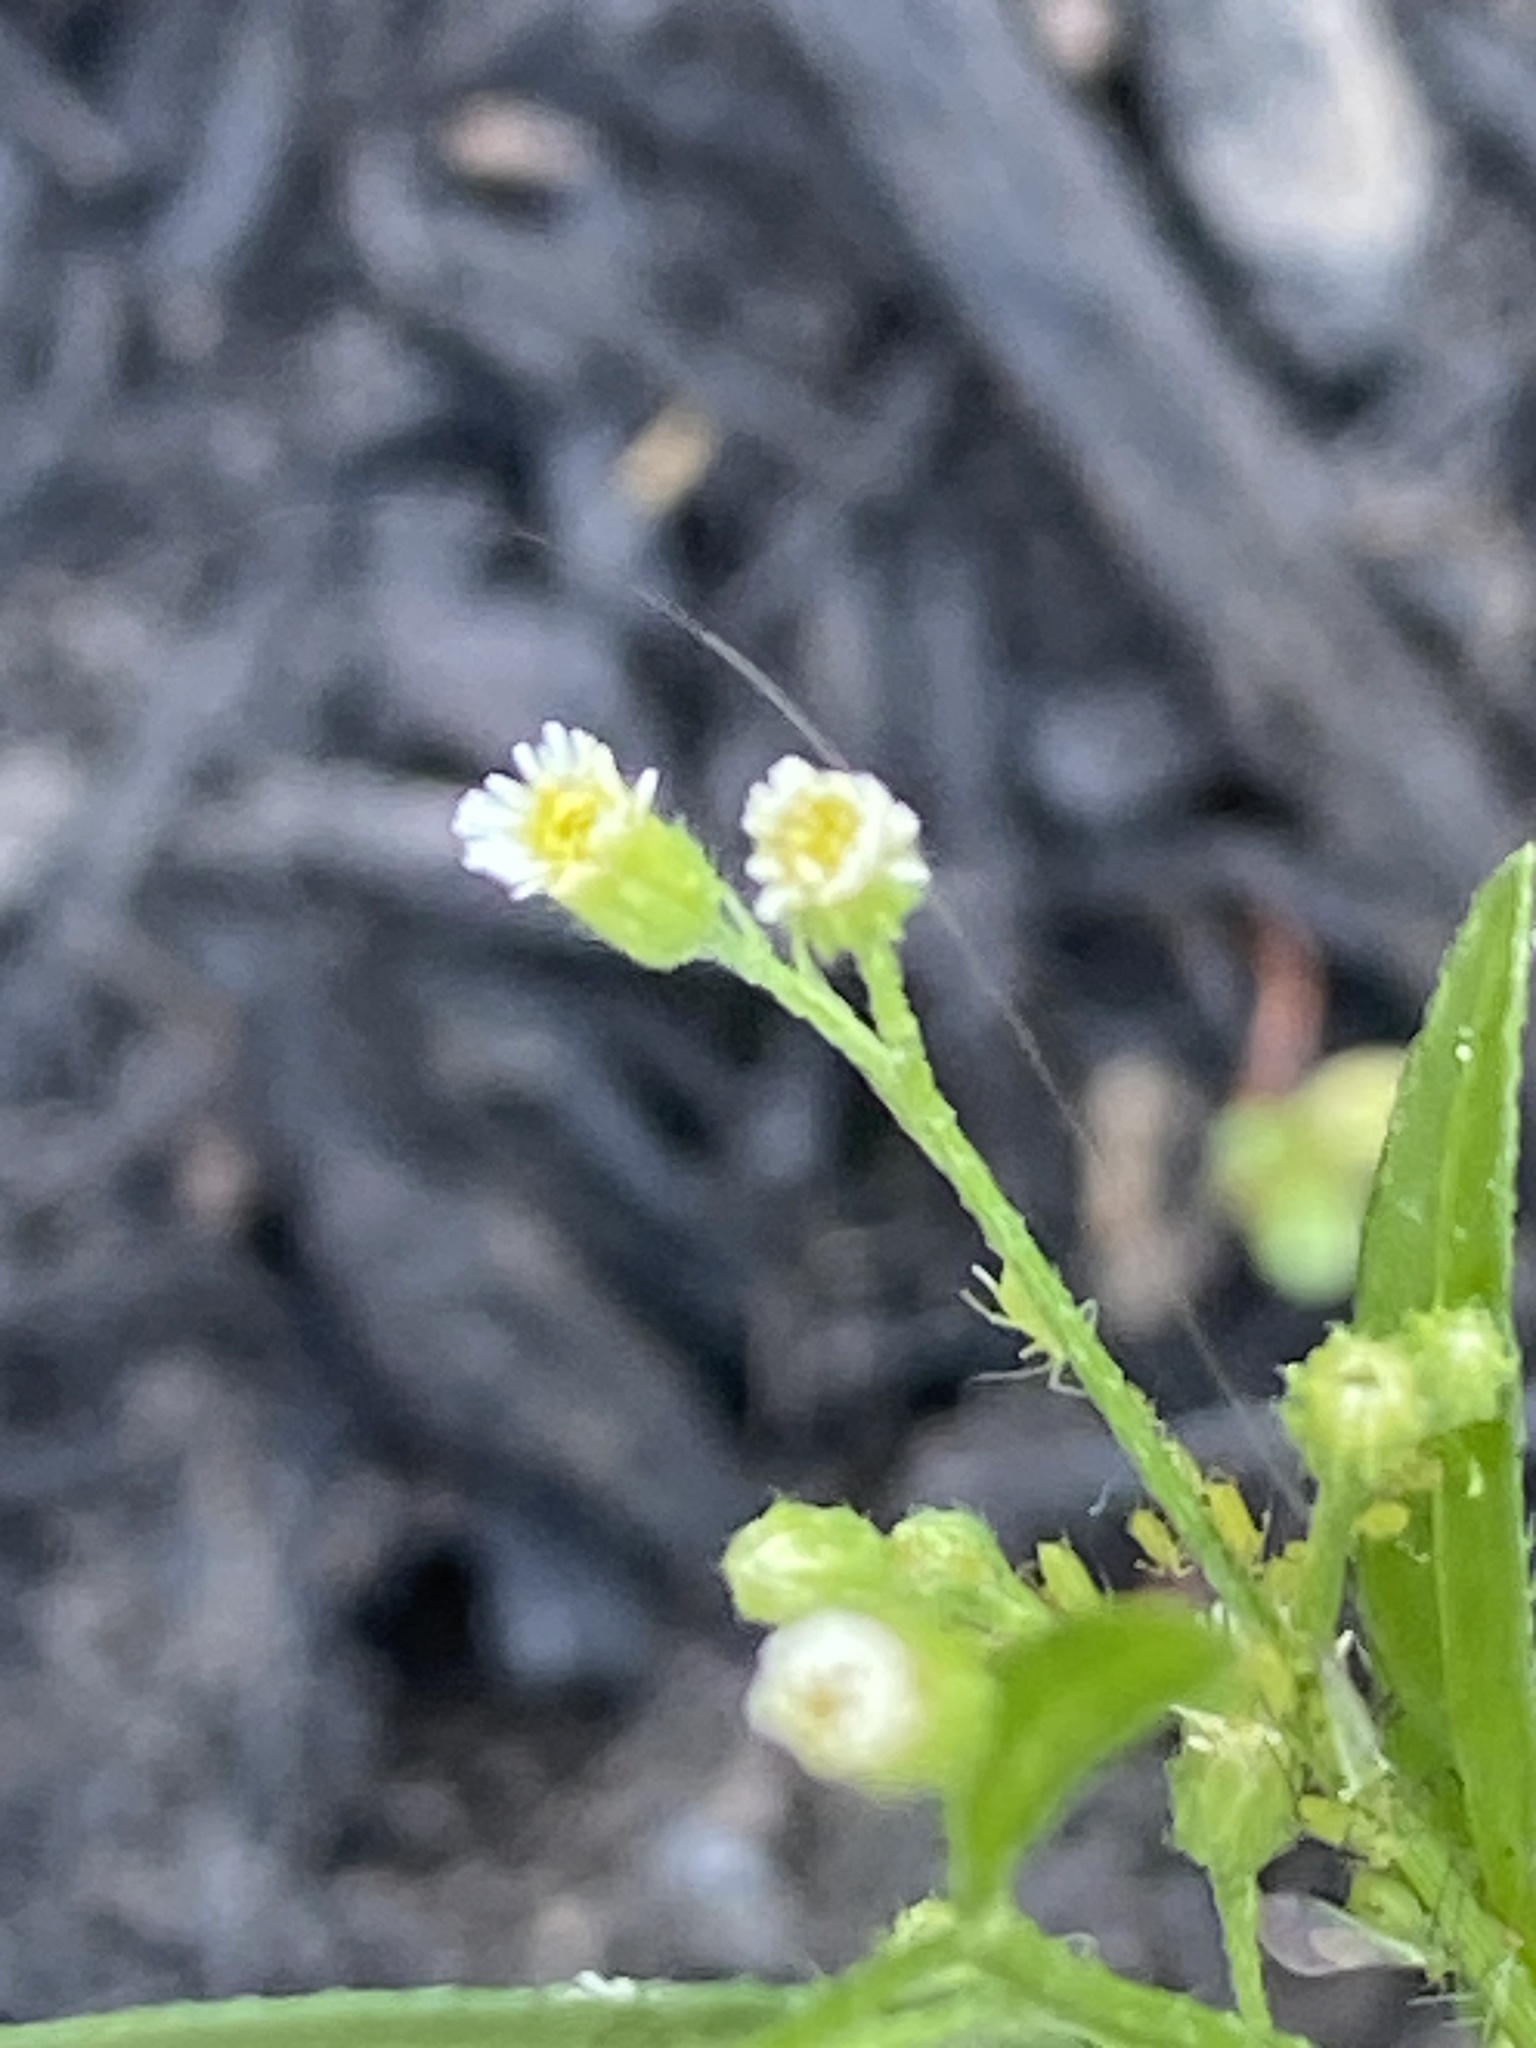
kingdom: Plantae
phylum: Tracheophyta
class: Magnoliopsida
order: Asterales
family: Asteraceae
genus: Erigeron
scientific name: Erigeron canadensis
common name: Canadian fleabane
